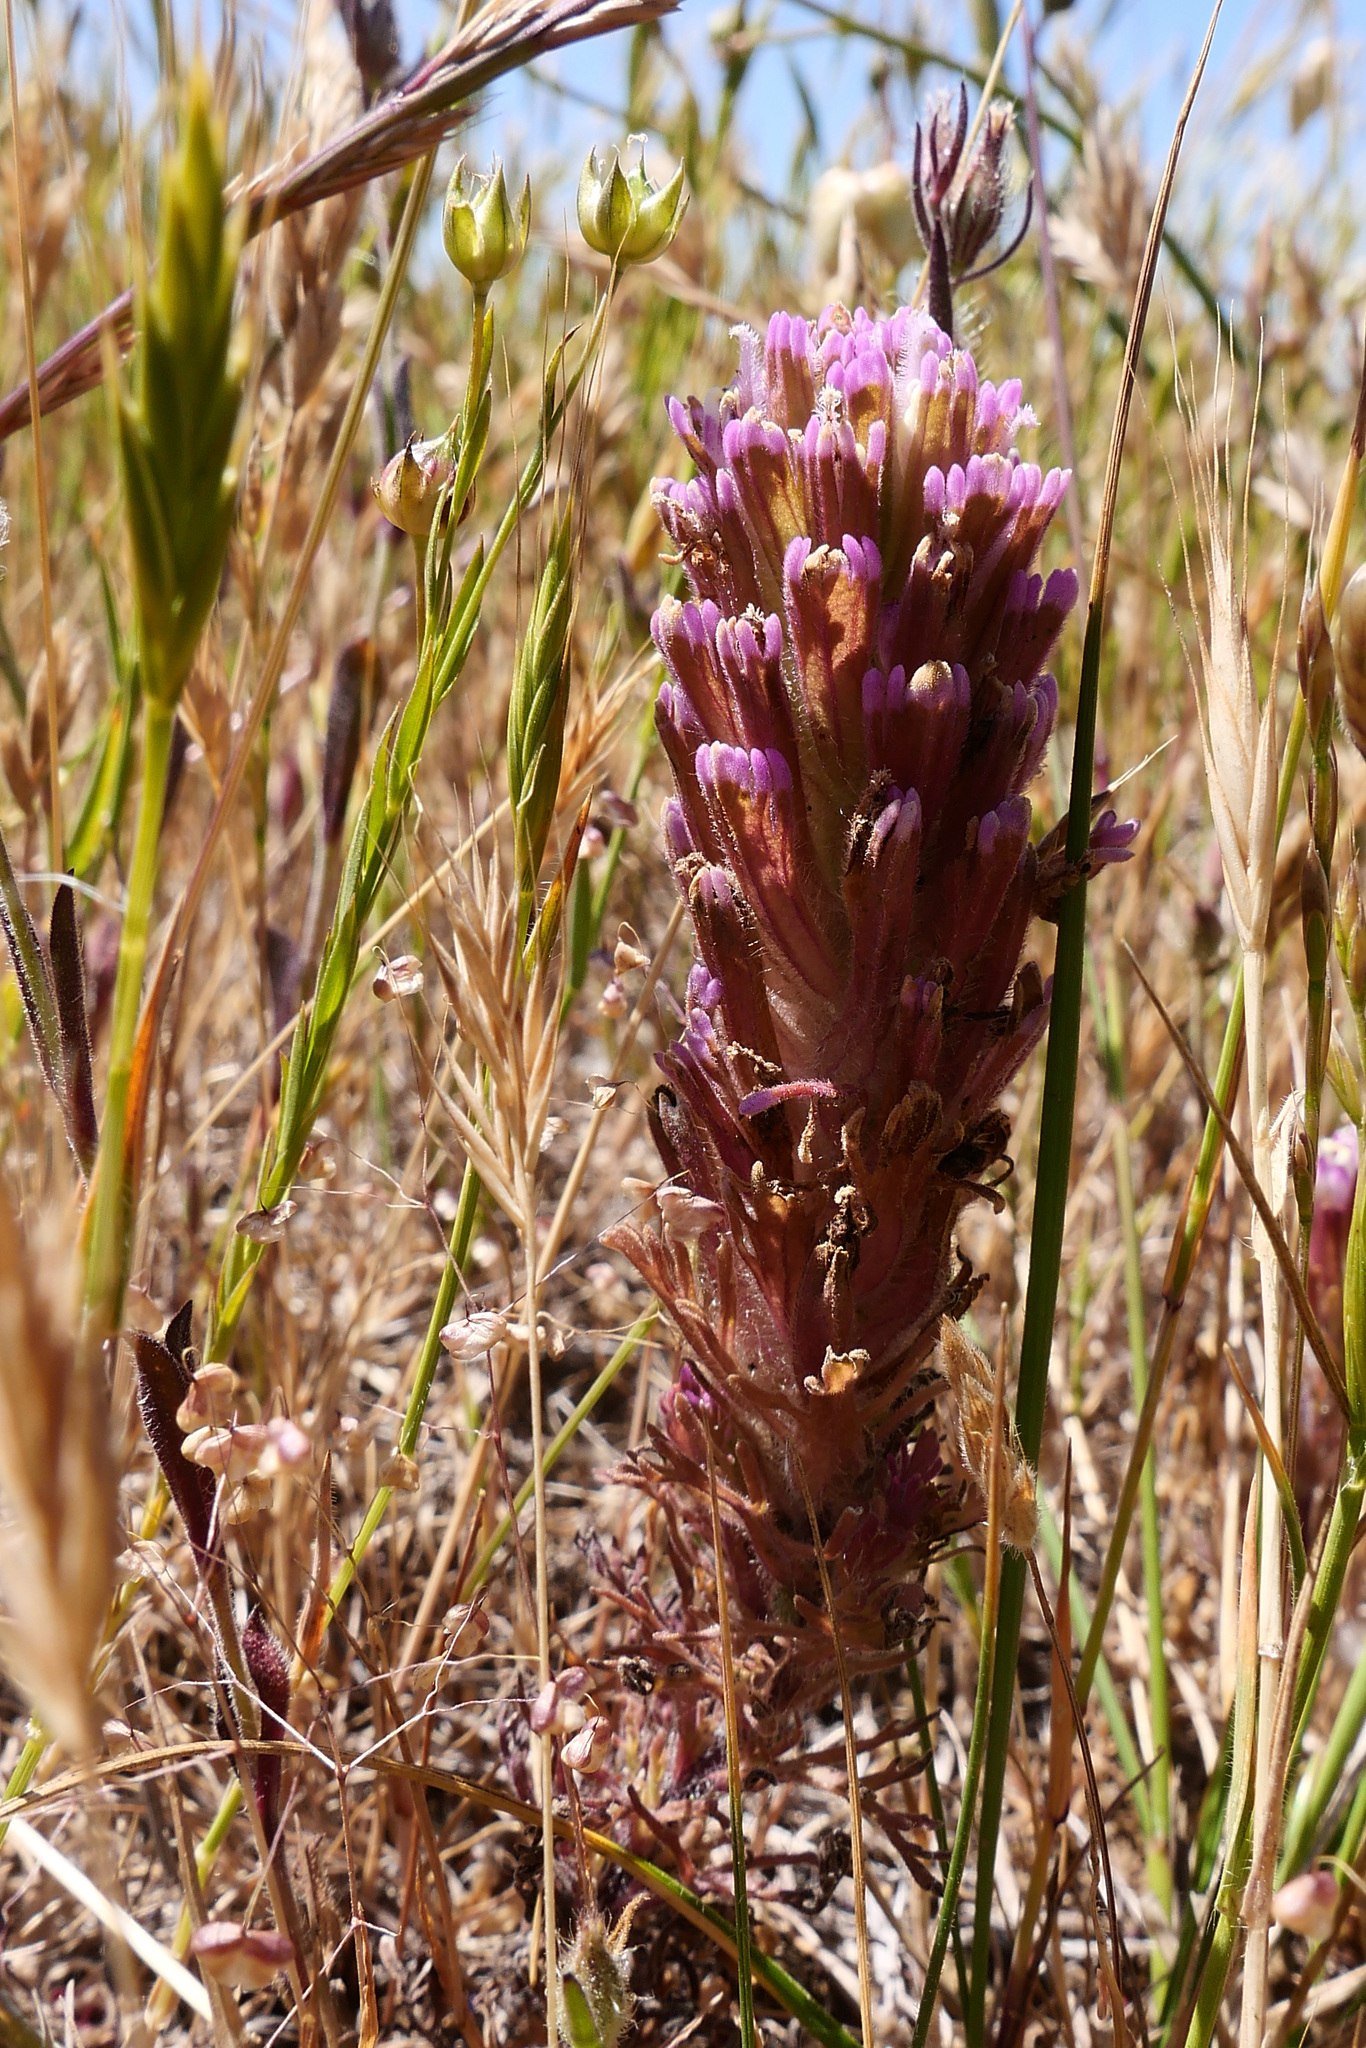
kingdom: Plantae
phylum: Tracheophyta
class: Magnoliopsida
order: Lamiales
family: Orobanchaceae
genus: Castilleja
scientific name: Castilleja exserta
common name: Purple owl-clover
